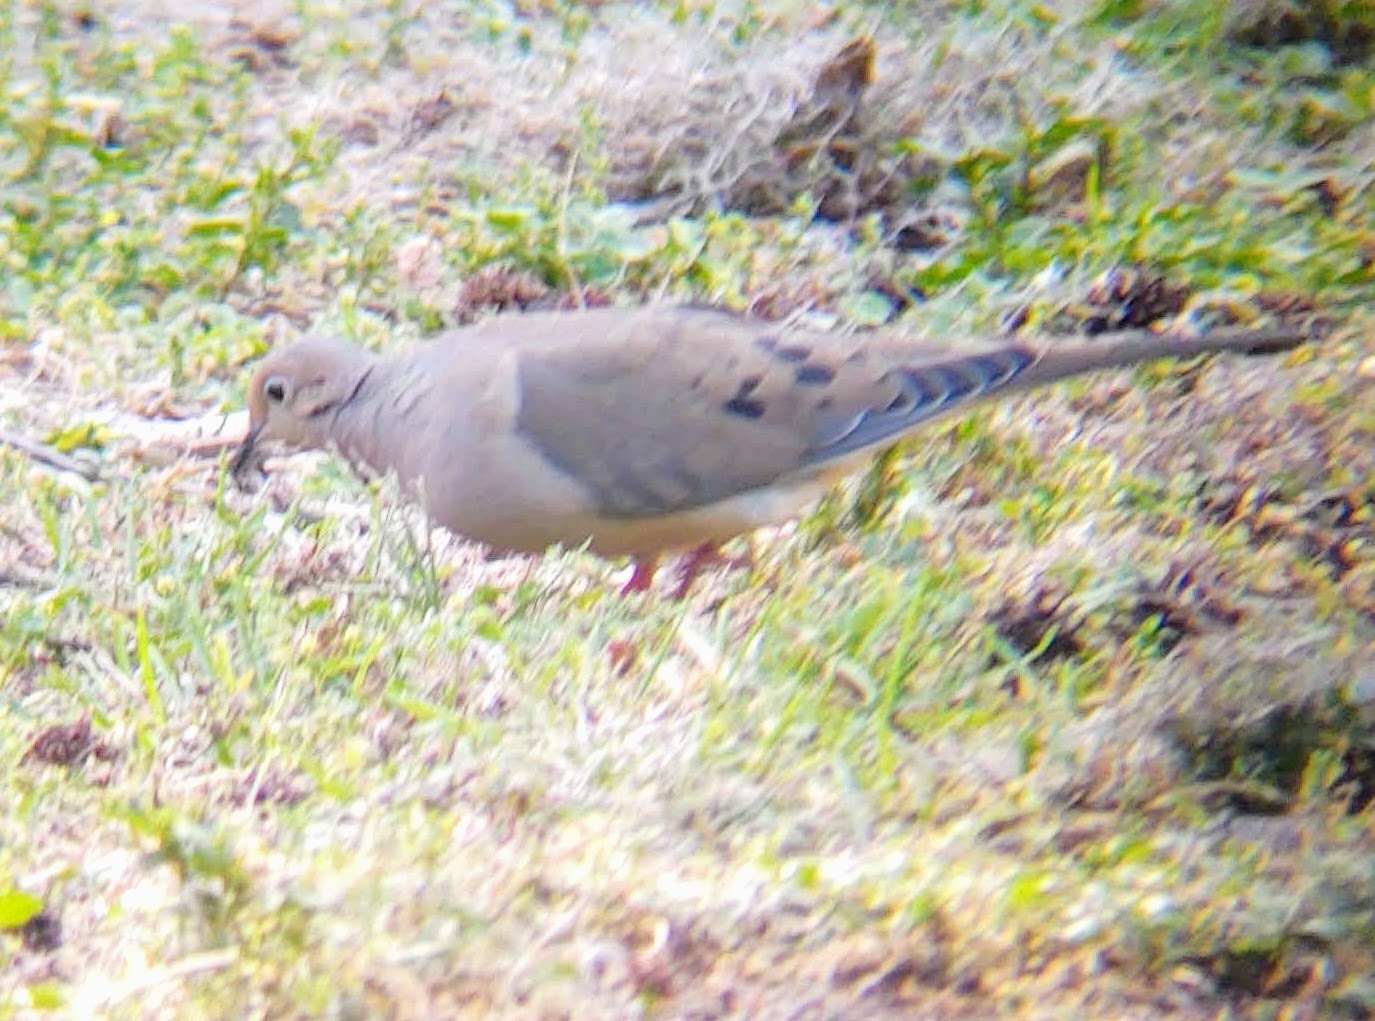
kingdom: Animalia
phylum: Chordata
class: Aves
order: Columbiformes
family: Columbidae
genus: Zenaida
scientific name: Zenaida macroura
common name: Mourning dove
